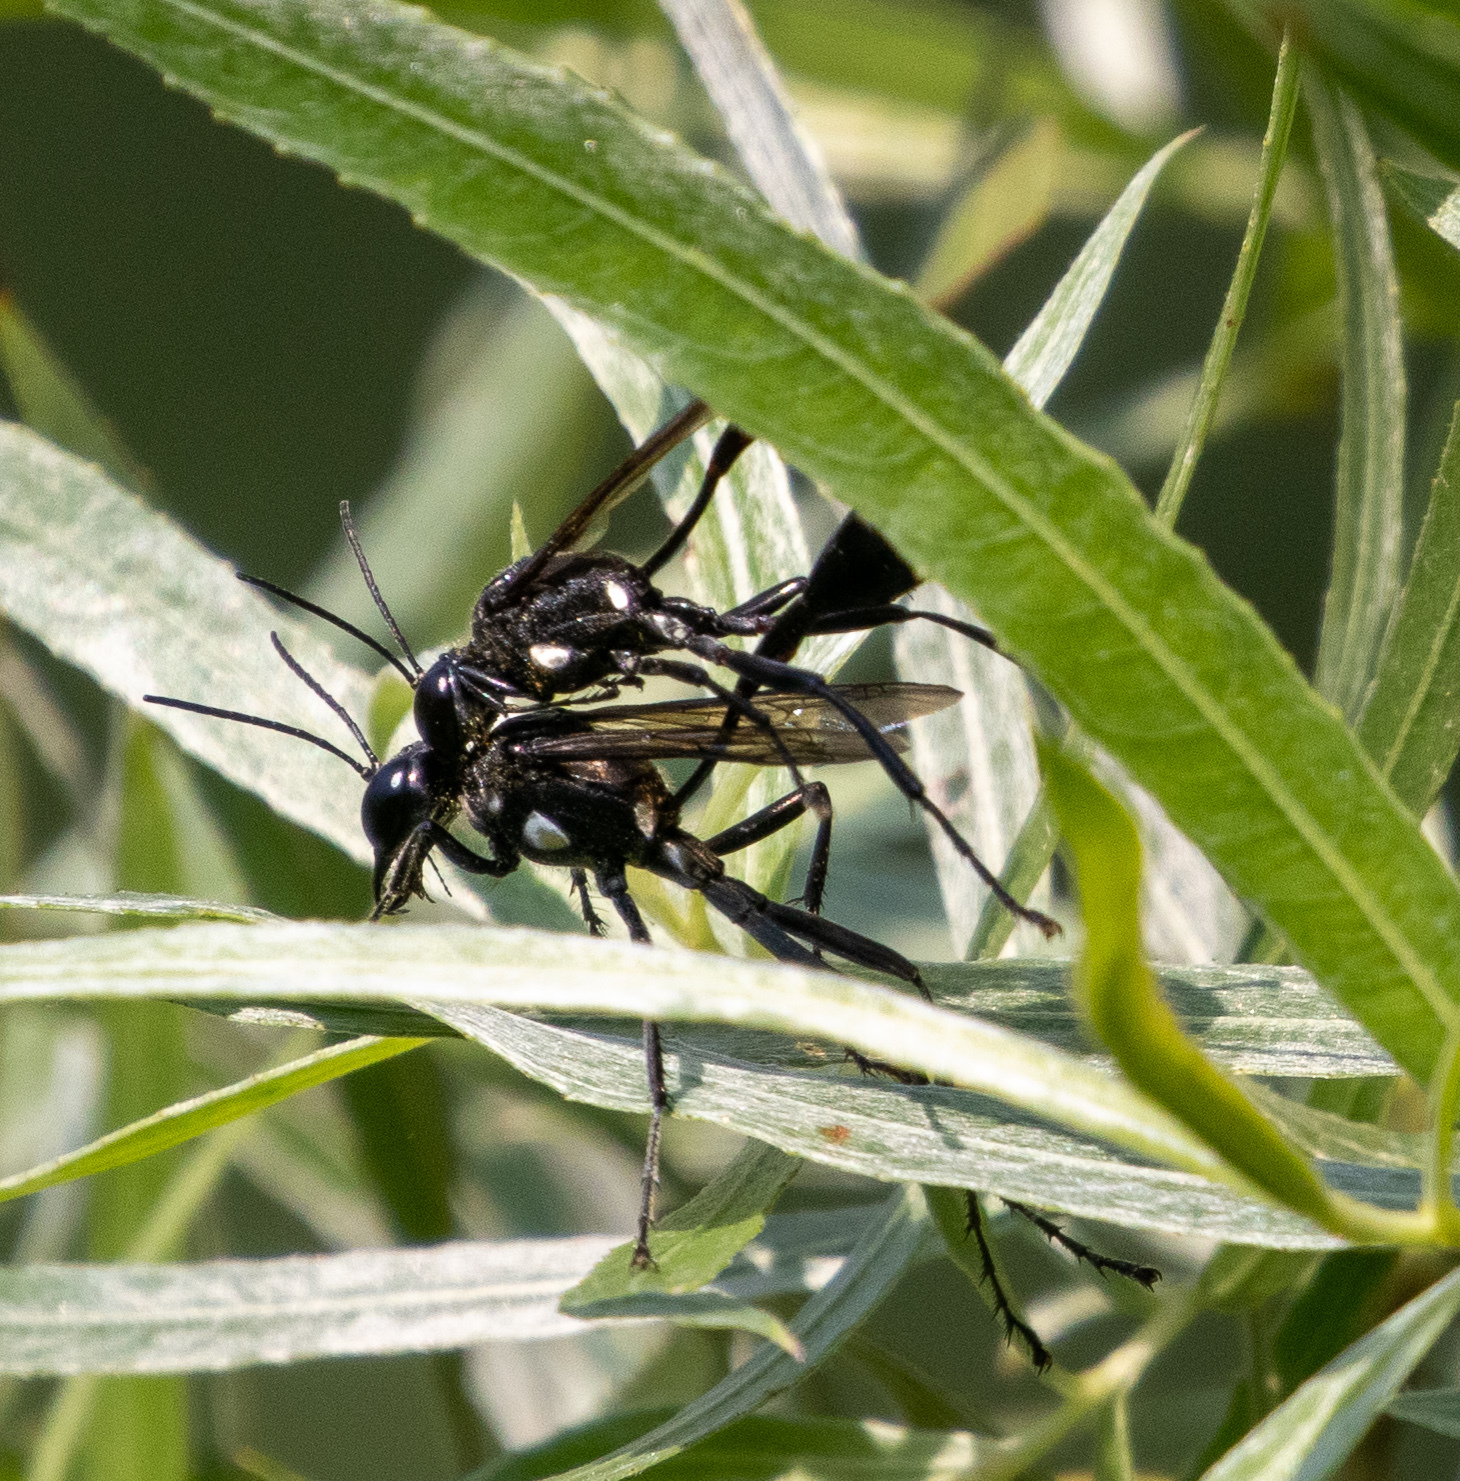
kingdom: Animalia
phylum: Arthropoda
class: Insecta
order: Hymenoptera
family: Sphecidae
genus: Eremnophila
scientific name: Eremnophila aureonotata
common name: Gold-marked thread-waisted wasp
